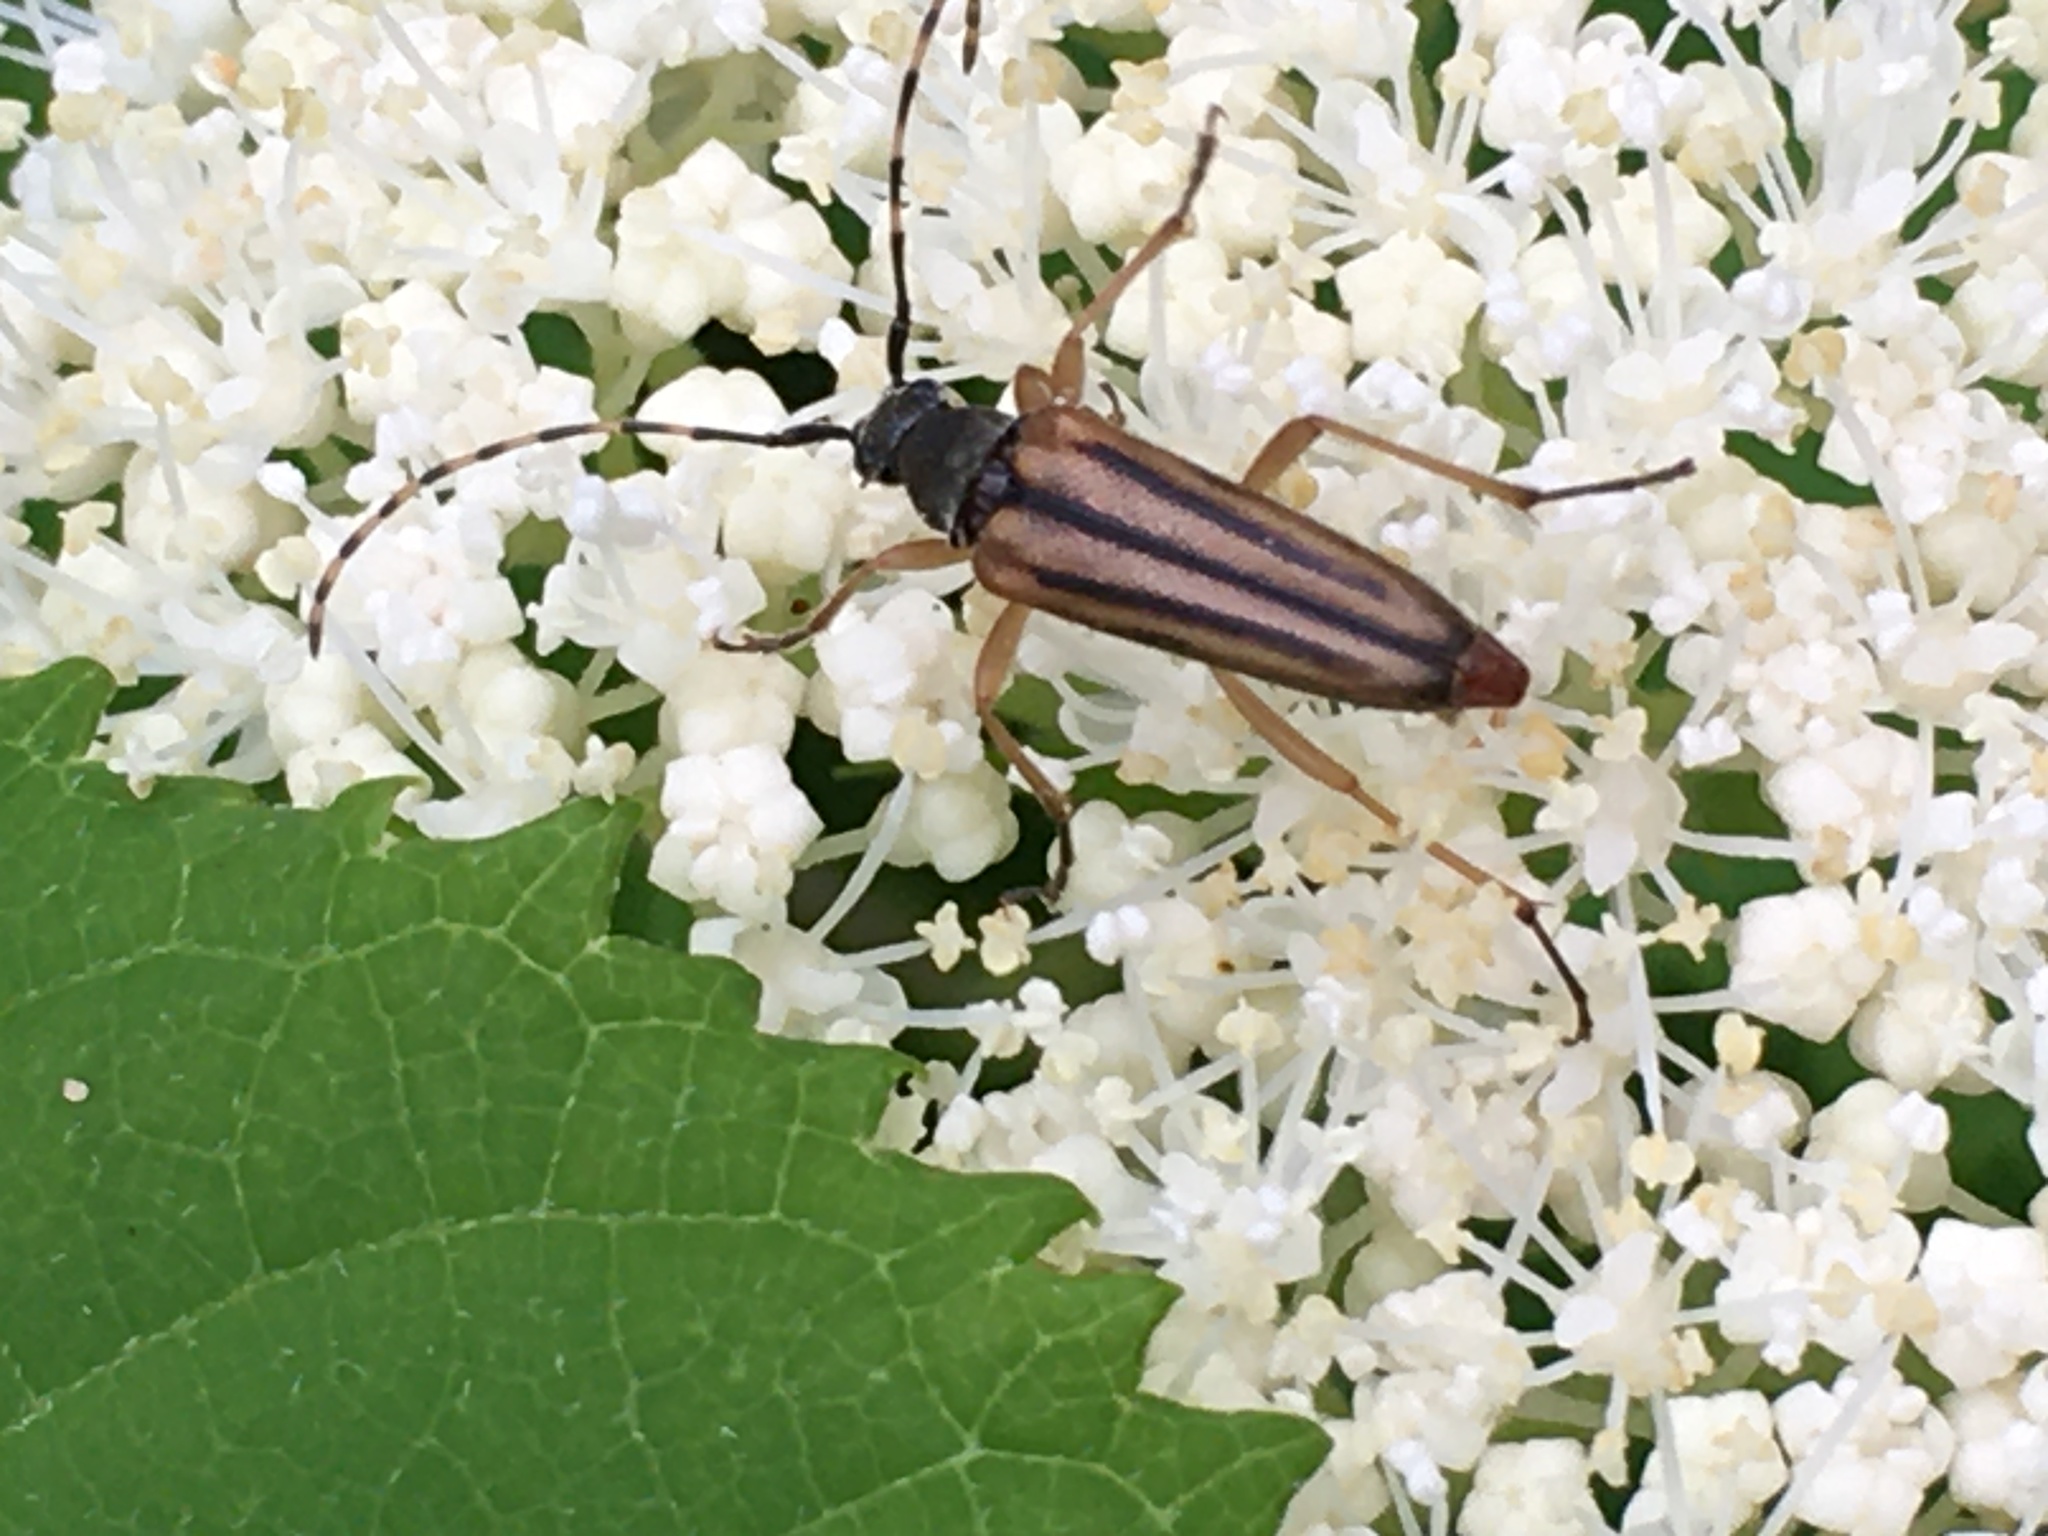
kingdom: Animalia
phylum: Arthropoda
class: Insecta
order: Coleoptera
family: Cerambycidae
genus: Analeptura
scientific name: Analeptura lineola
